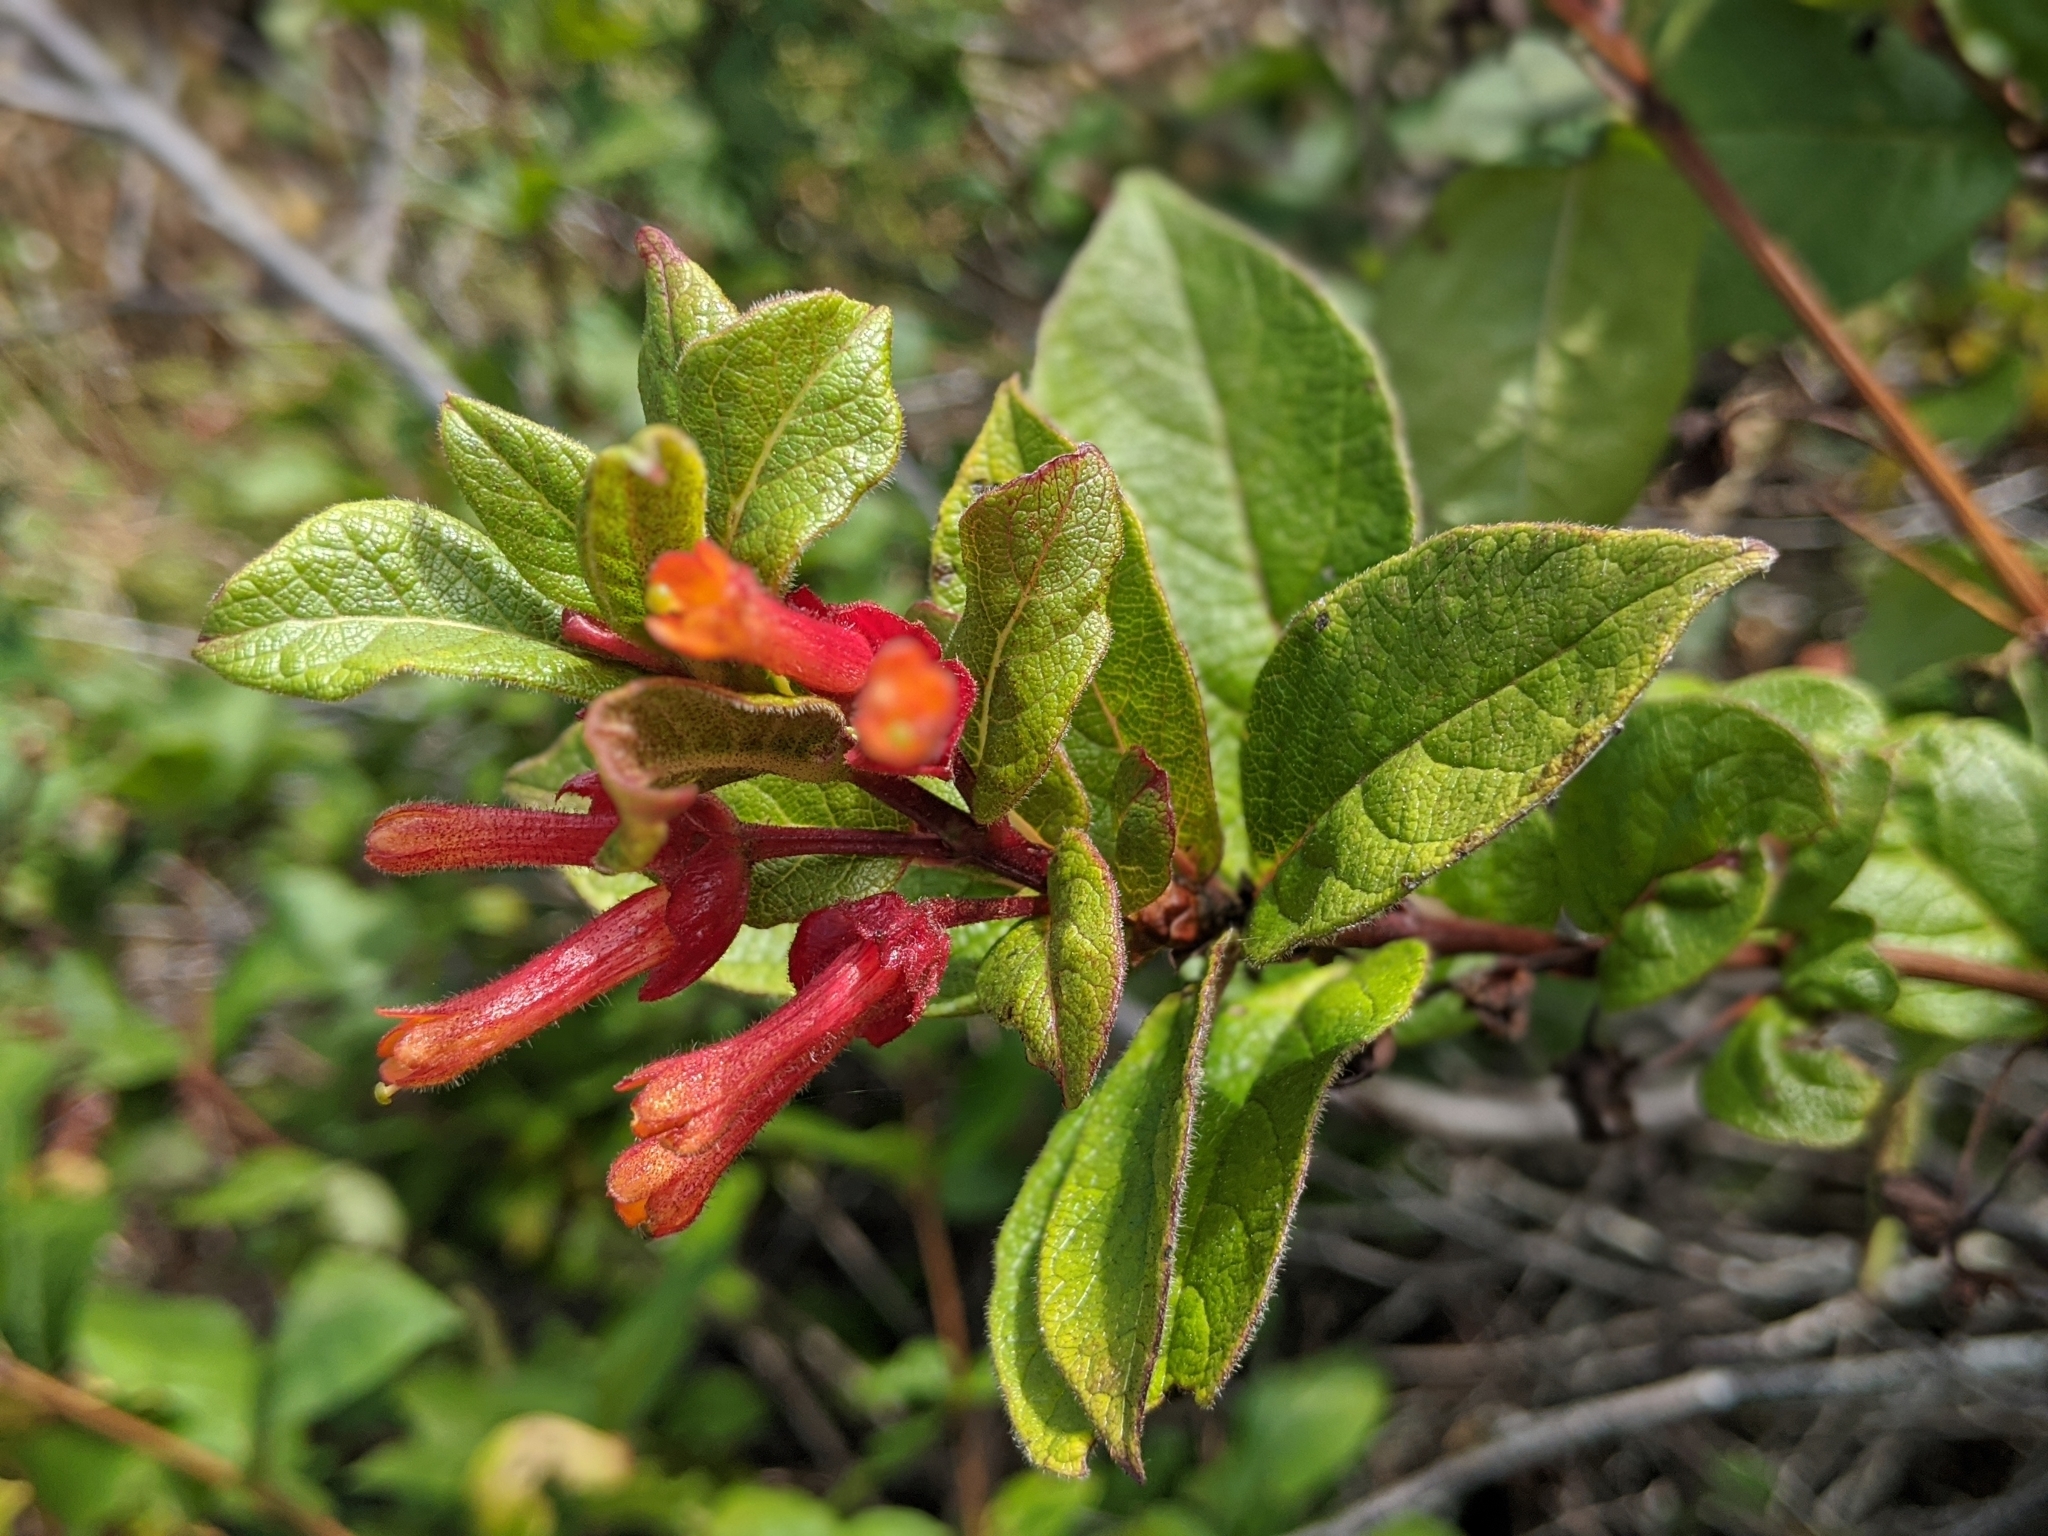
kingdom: Plantae
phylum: Tracheophyta
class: Magnoliopsida
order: Dipsacales
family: Caprifoliaceae
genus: Lonicera
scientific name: Lonicera involucrata
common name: Californian honeysuckle
